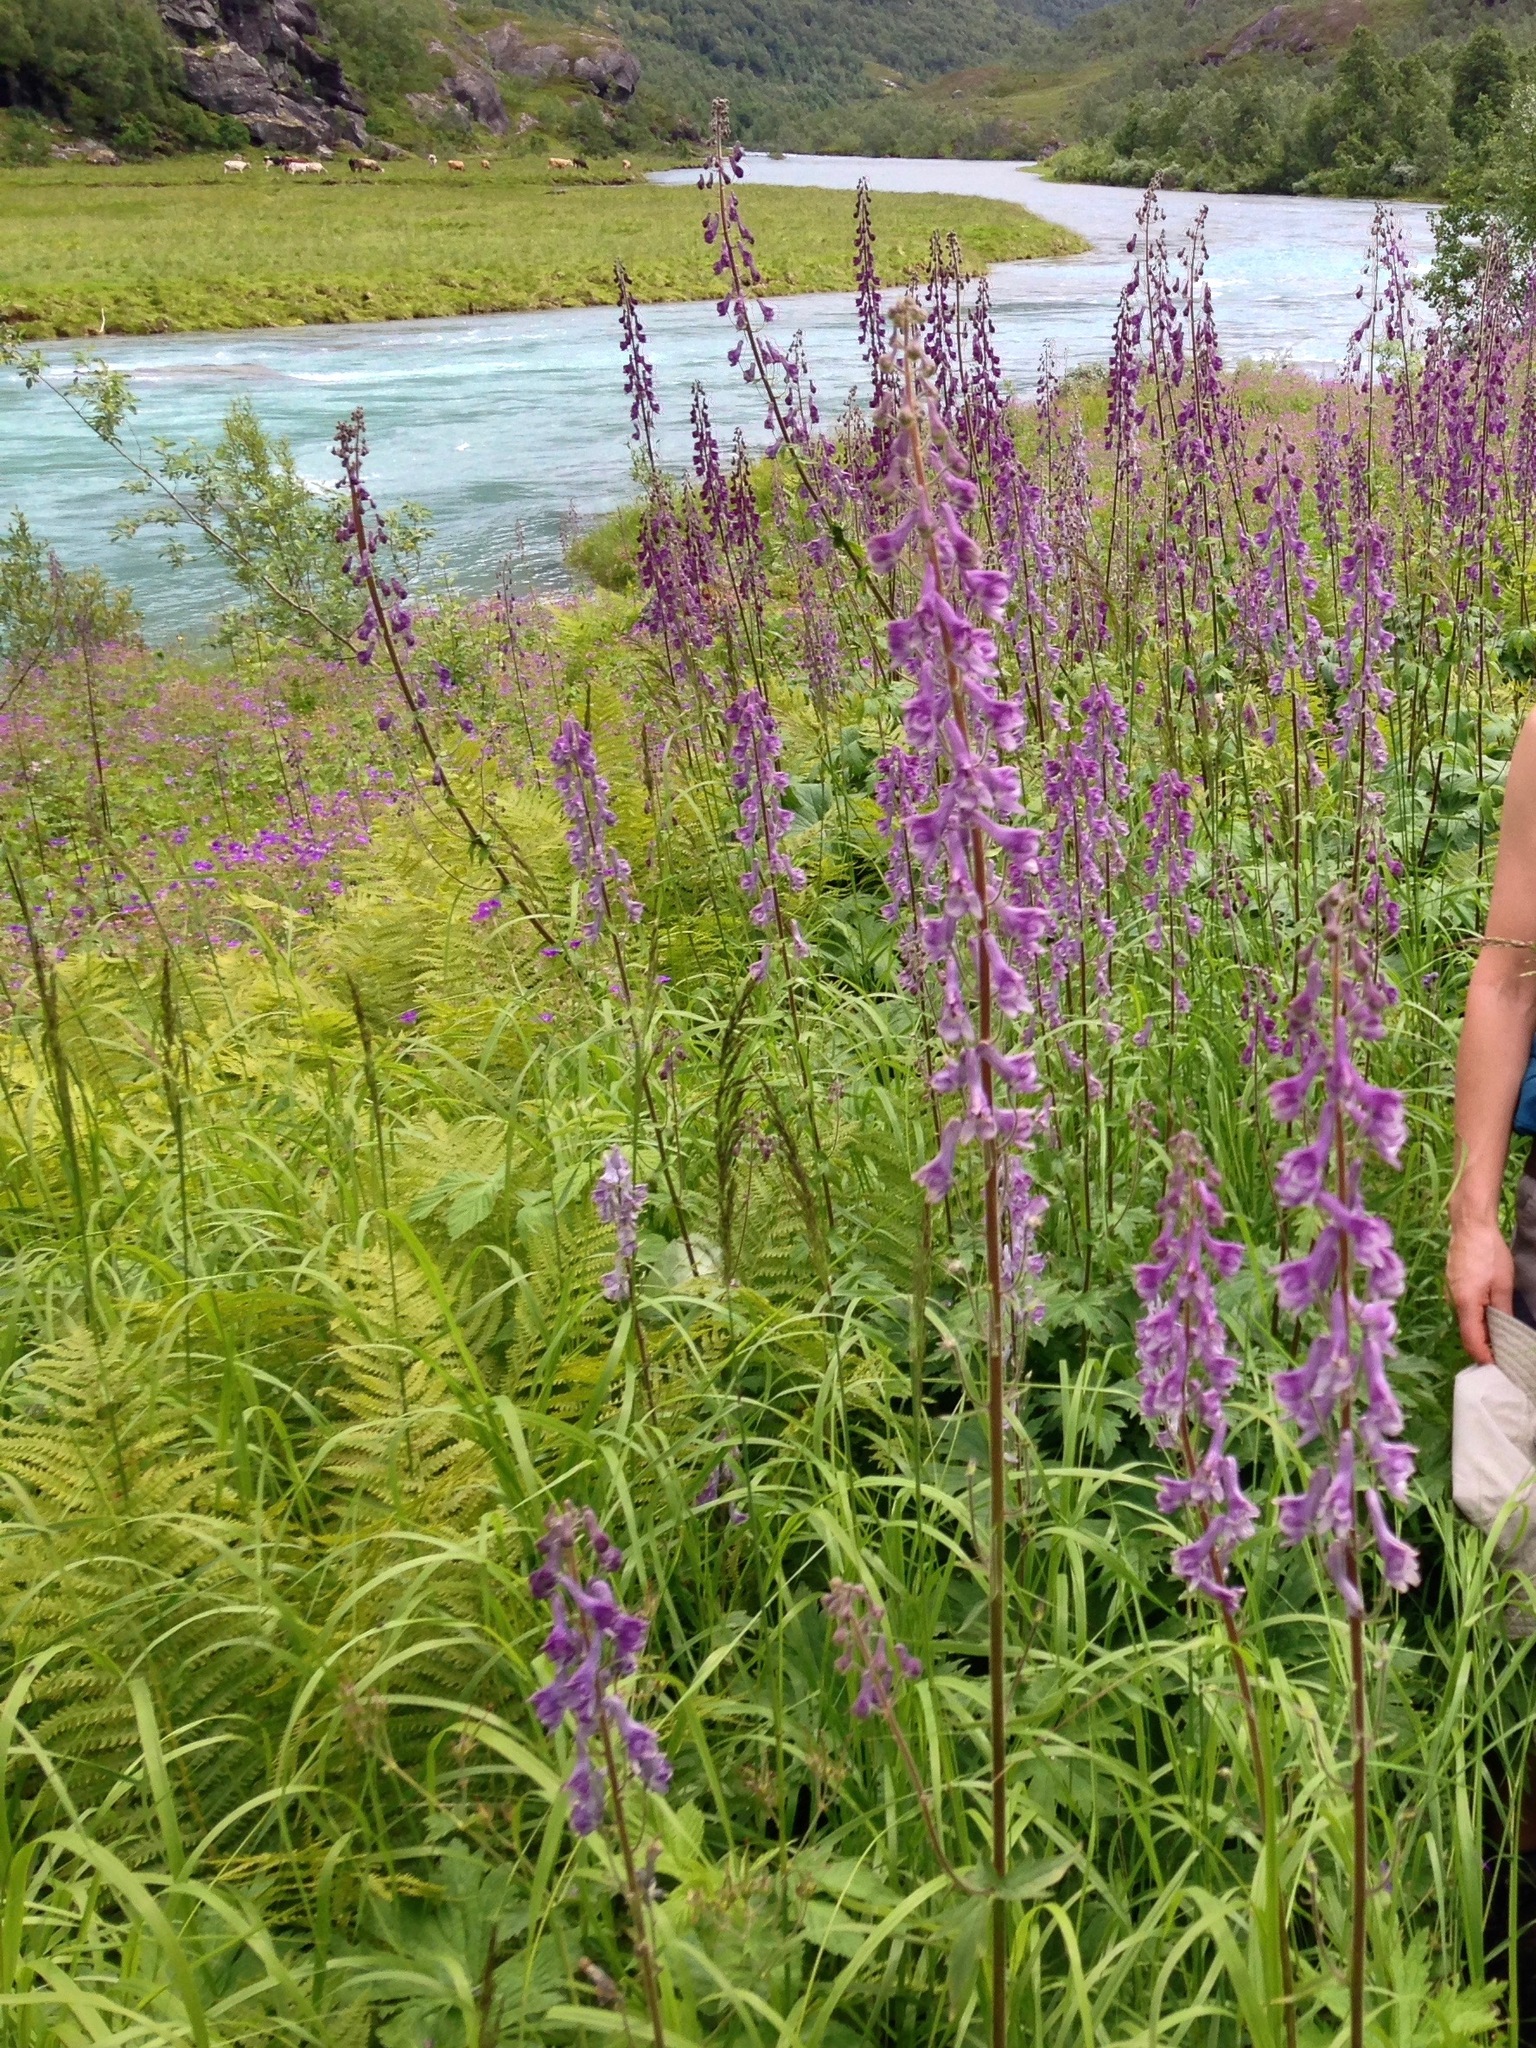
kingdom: Plantae
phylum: Tracheophyta
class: Magnoliopsida
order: Ranunculales
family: Ranunculaceae
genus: Aconitum
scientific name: Aconitum septentrionale
